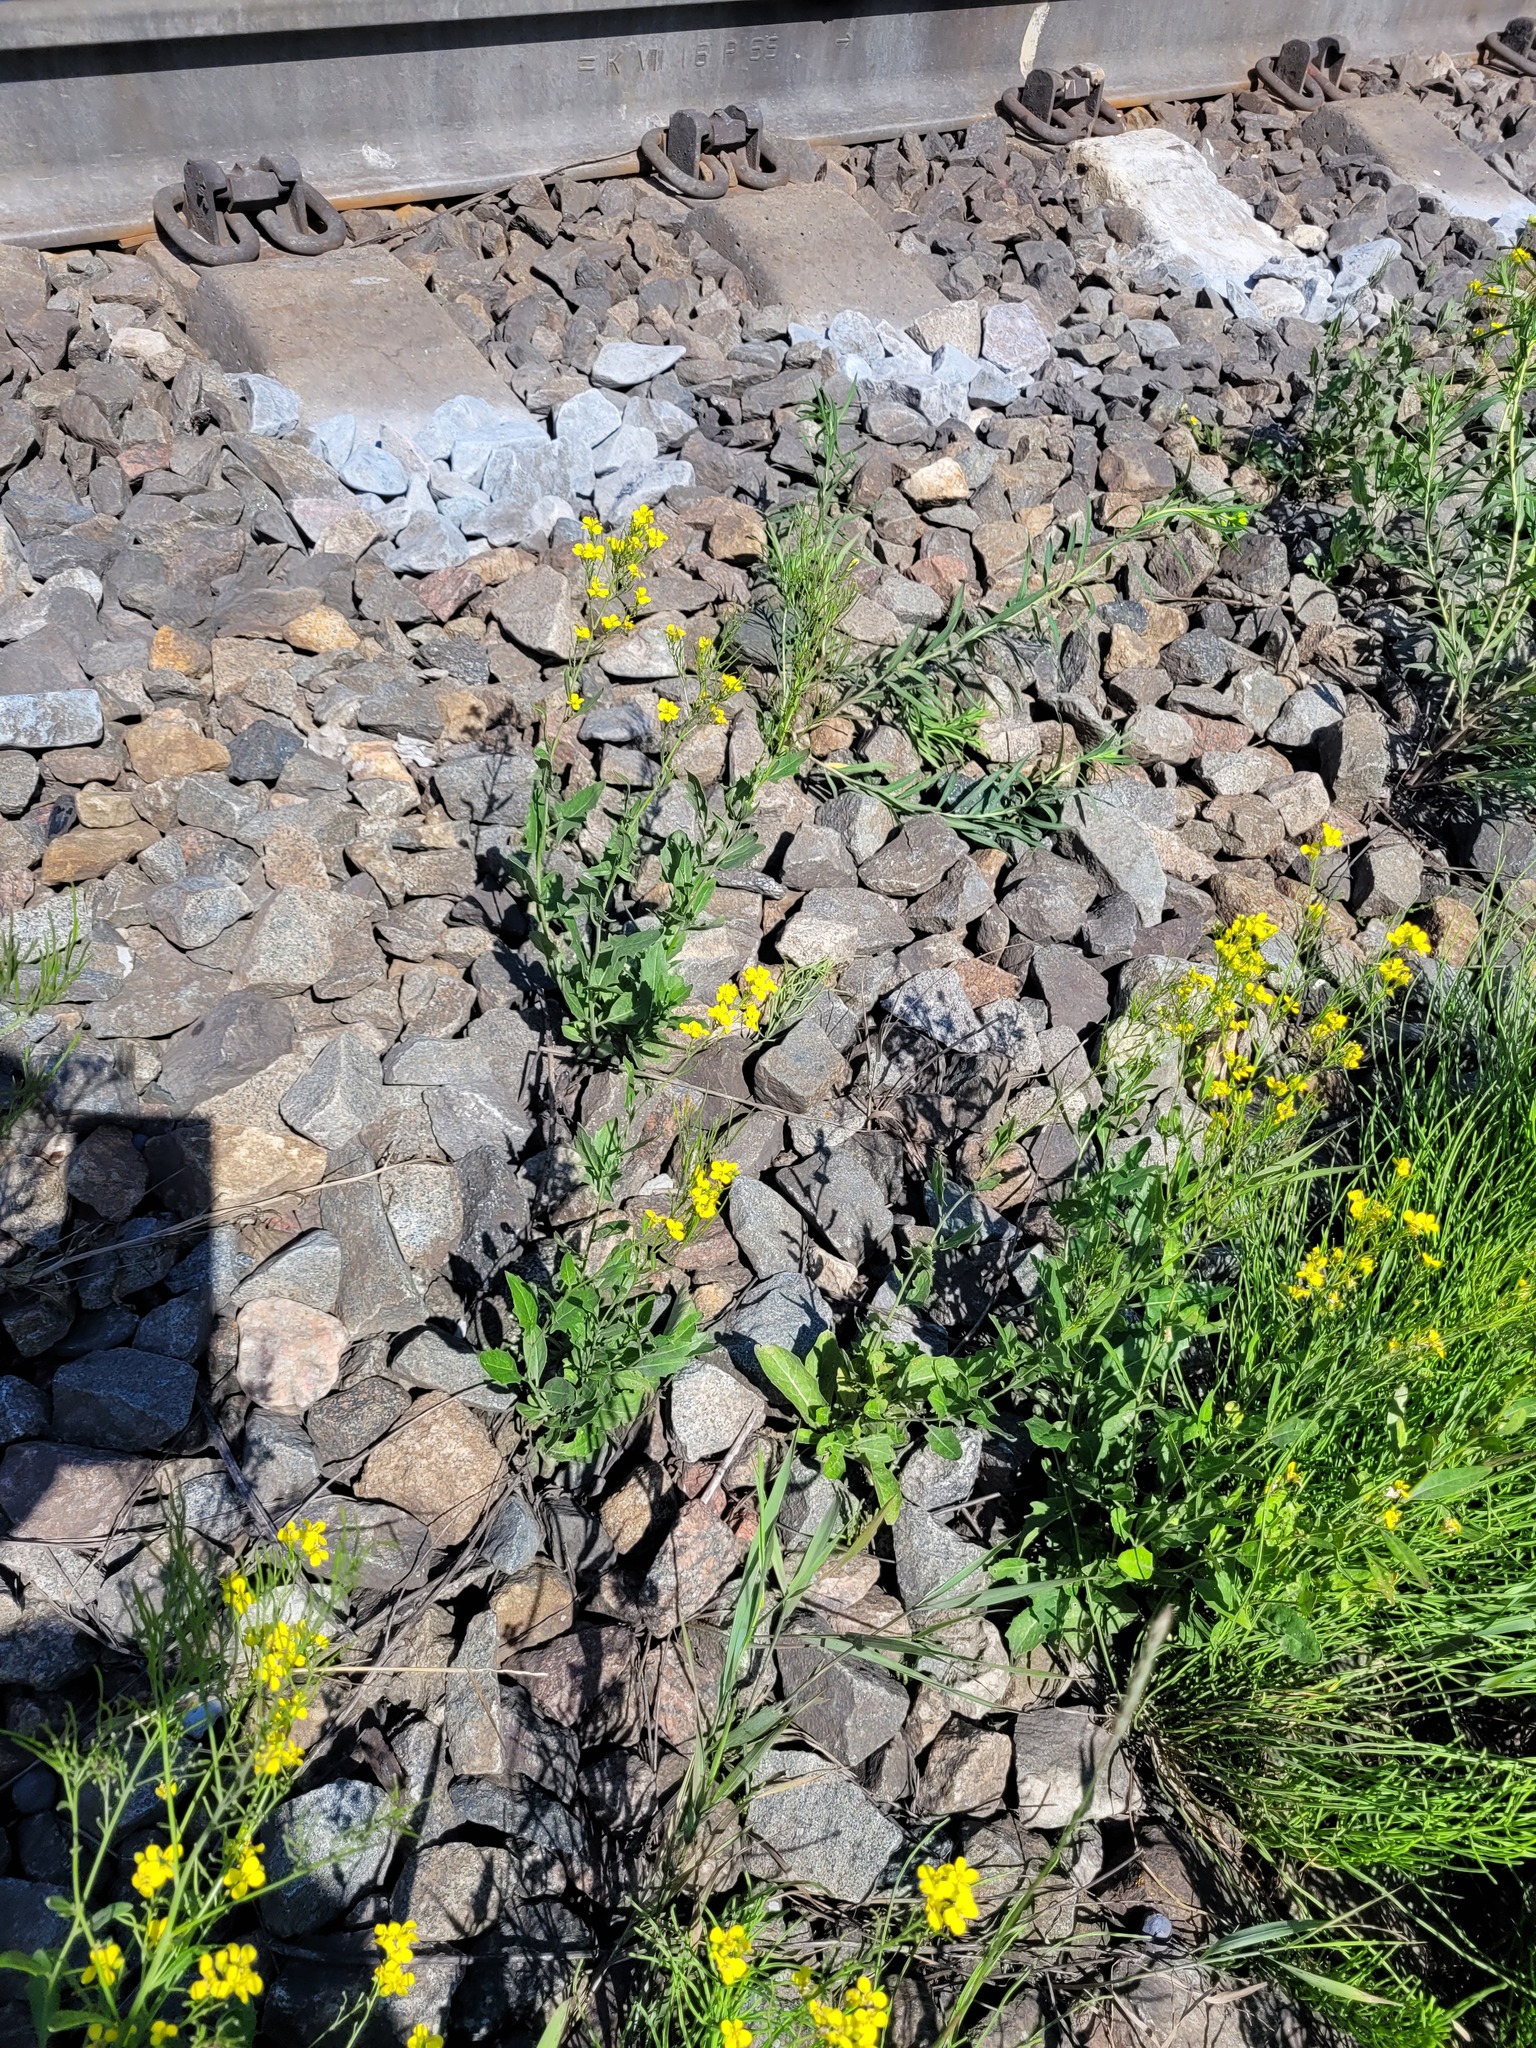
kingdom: Plantae
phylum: Tracheophyta
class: Magnoliopsida
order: Brassicales
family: Brassicaceae
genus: Sisymbrium
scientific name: Sisymbrium volgense
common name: Russian mustard
